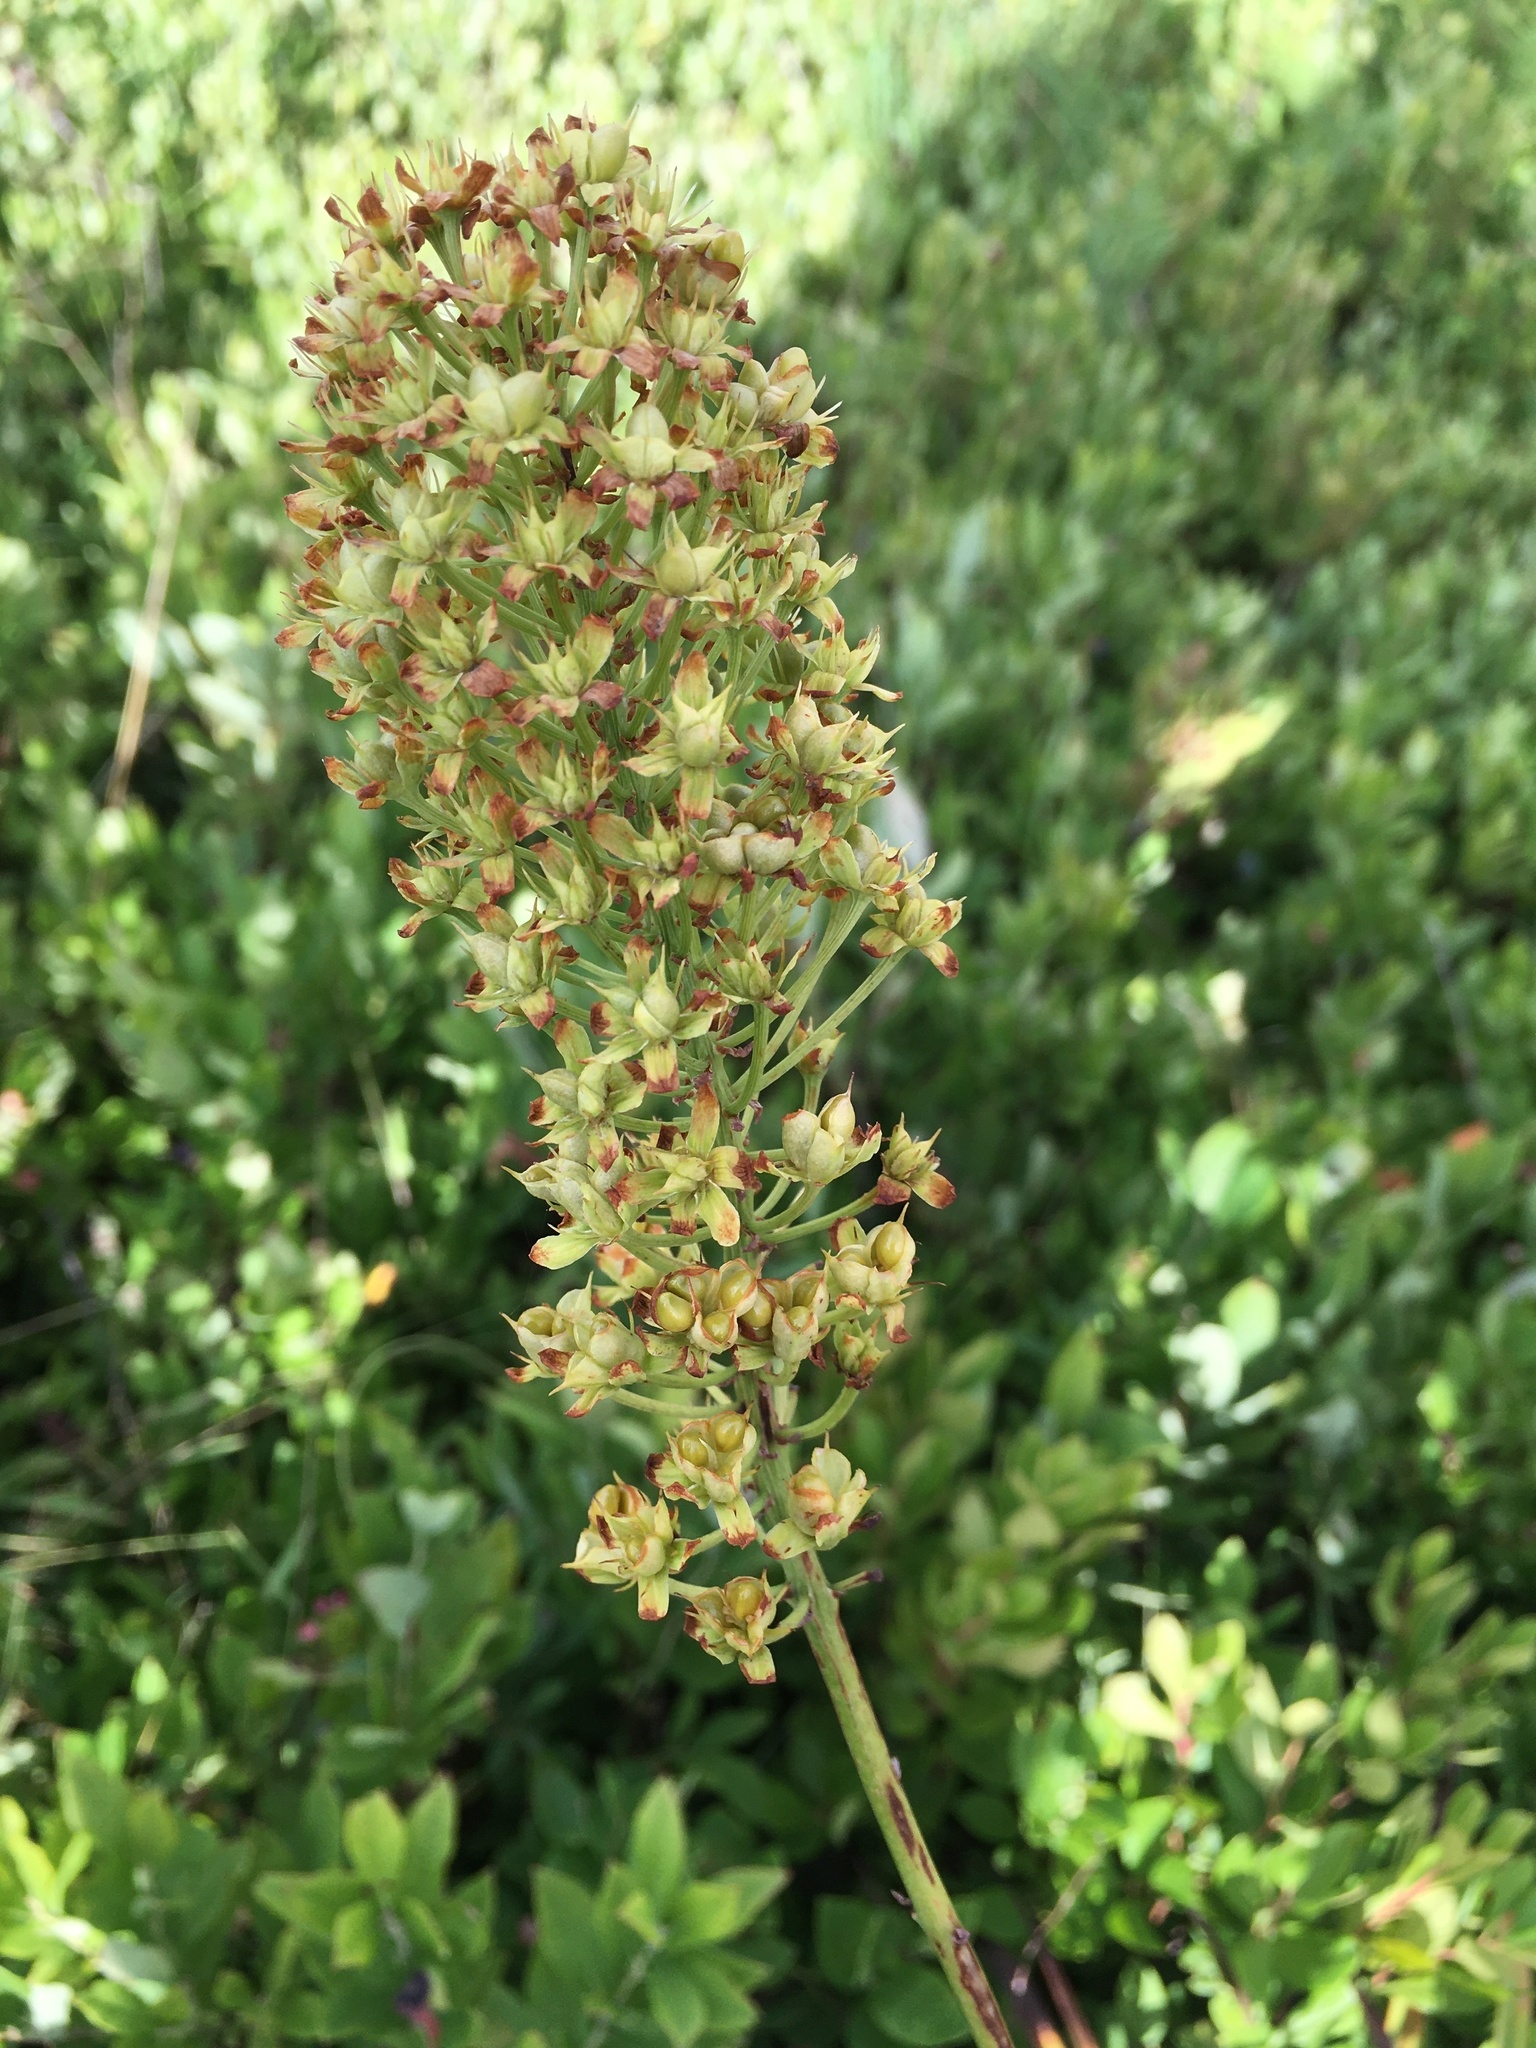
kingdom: Plantae
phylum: Tracheophyta
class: Liliopsida
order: Liliales
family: Melanthiaceae
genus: Amianthium
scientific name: Amianthium muscitoxicum
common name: Fly-poison
